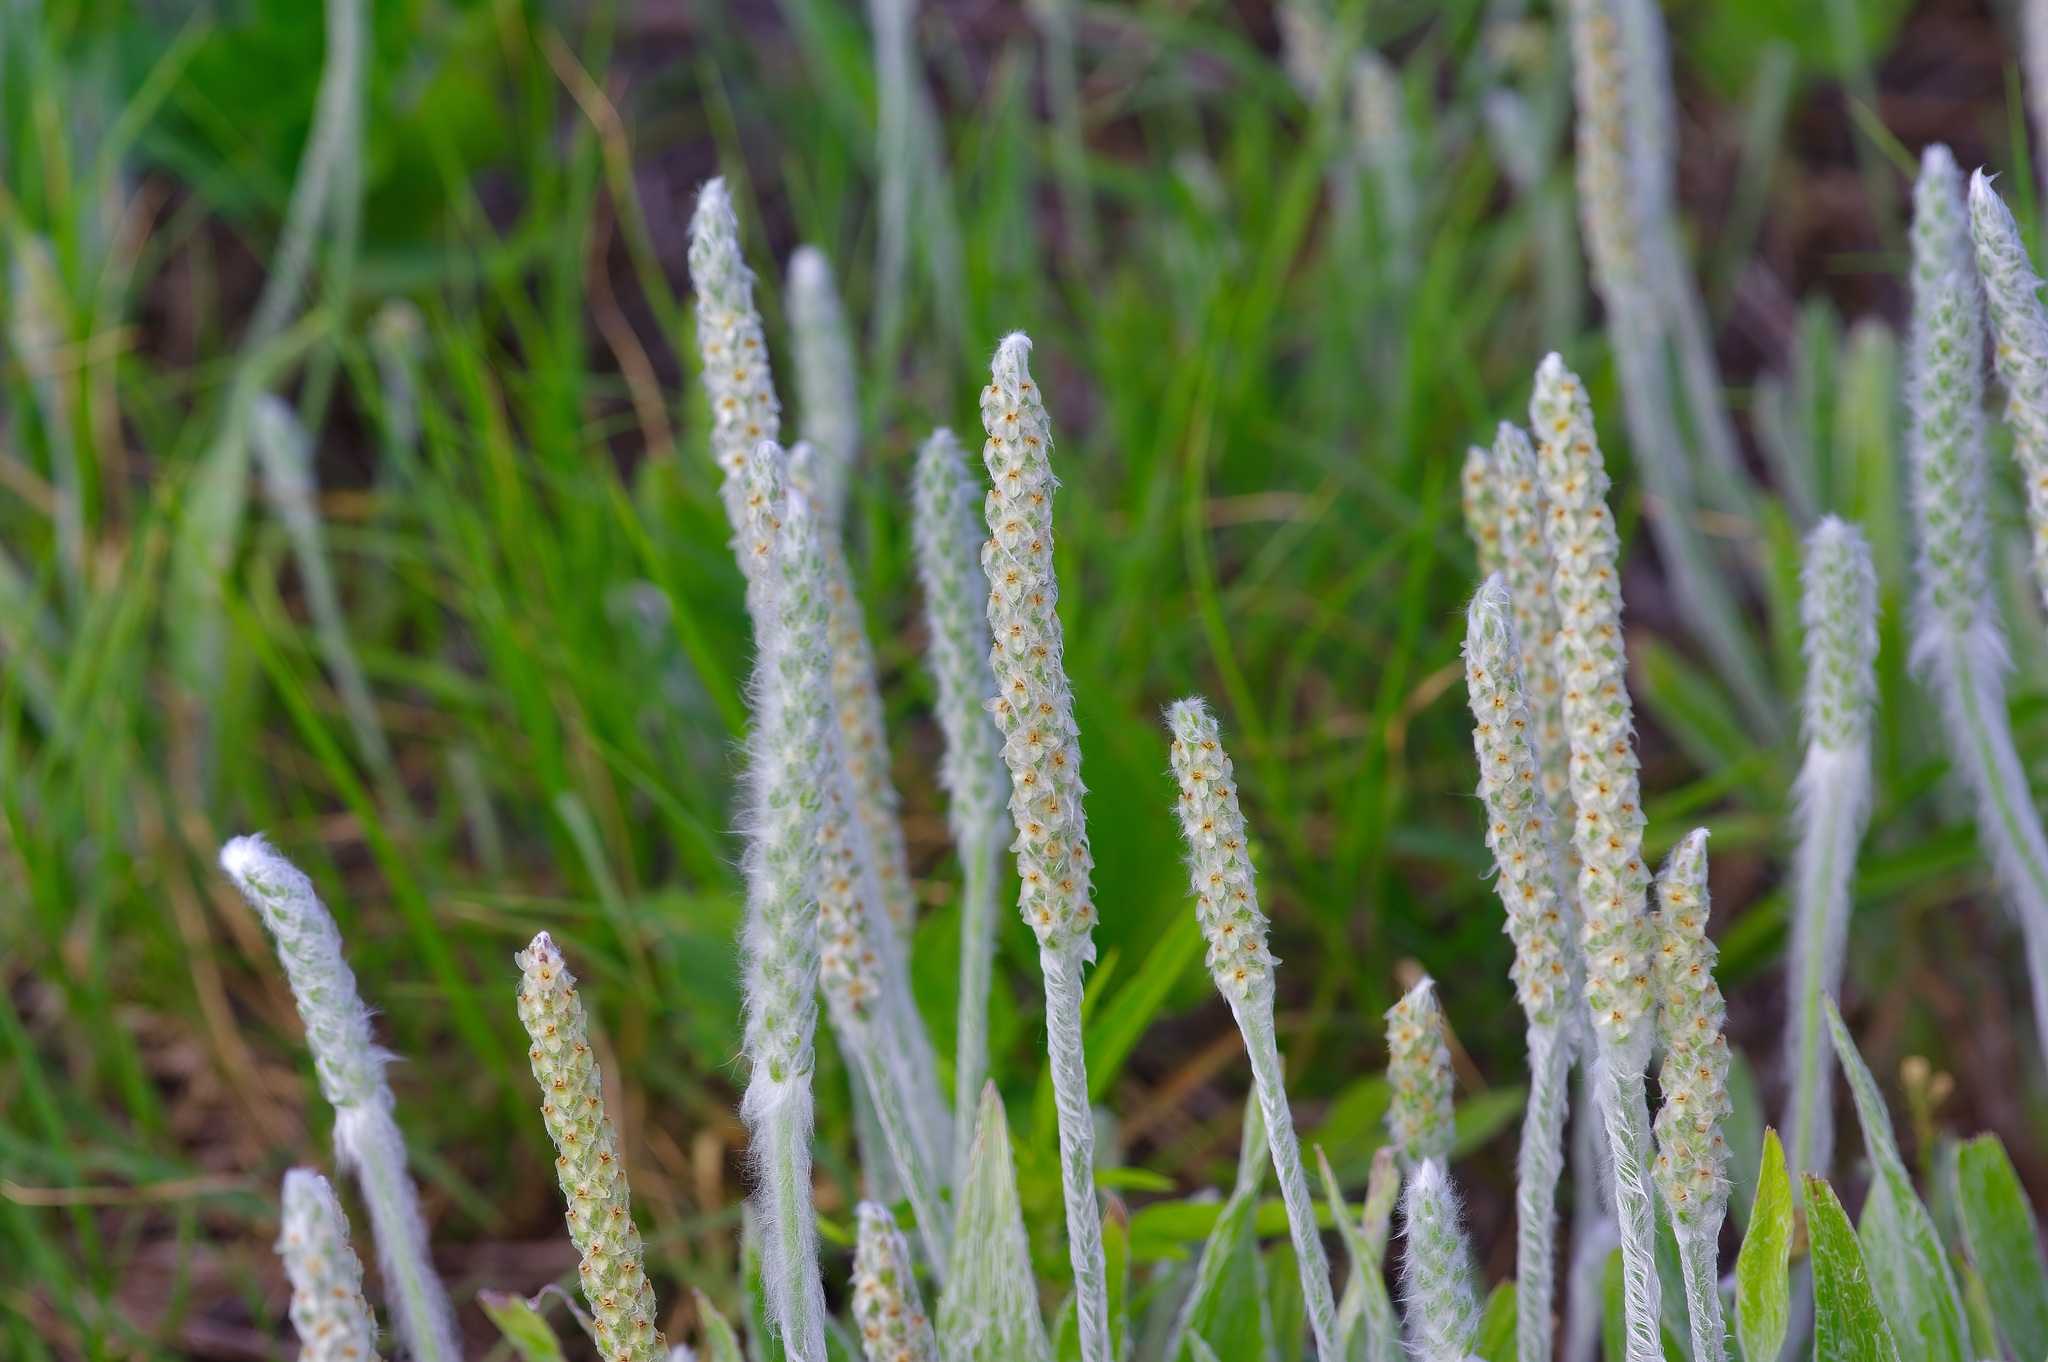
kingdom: Plantae
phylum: Tracheophyta
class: Magnoliopsida
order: Lamiales
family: Plantaginaceae
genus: Plantago
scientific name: Plantago hookeriana
